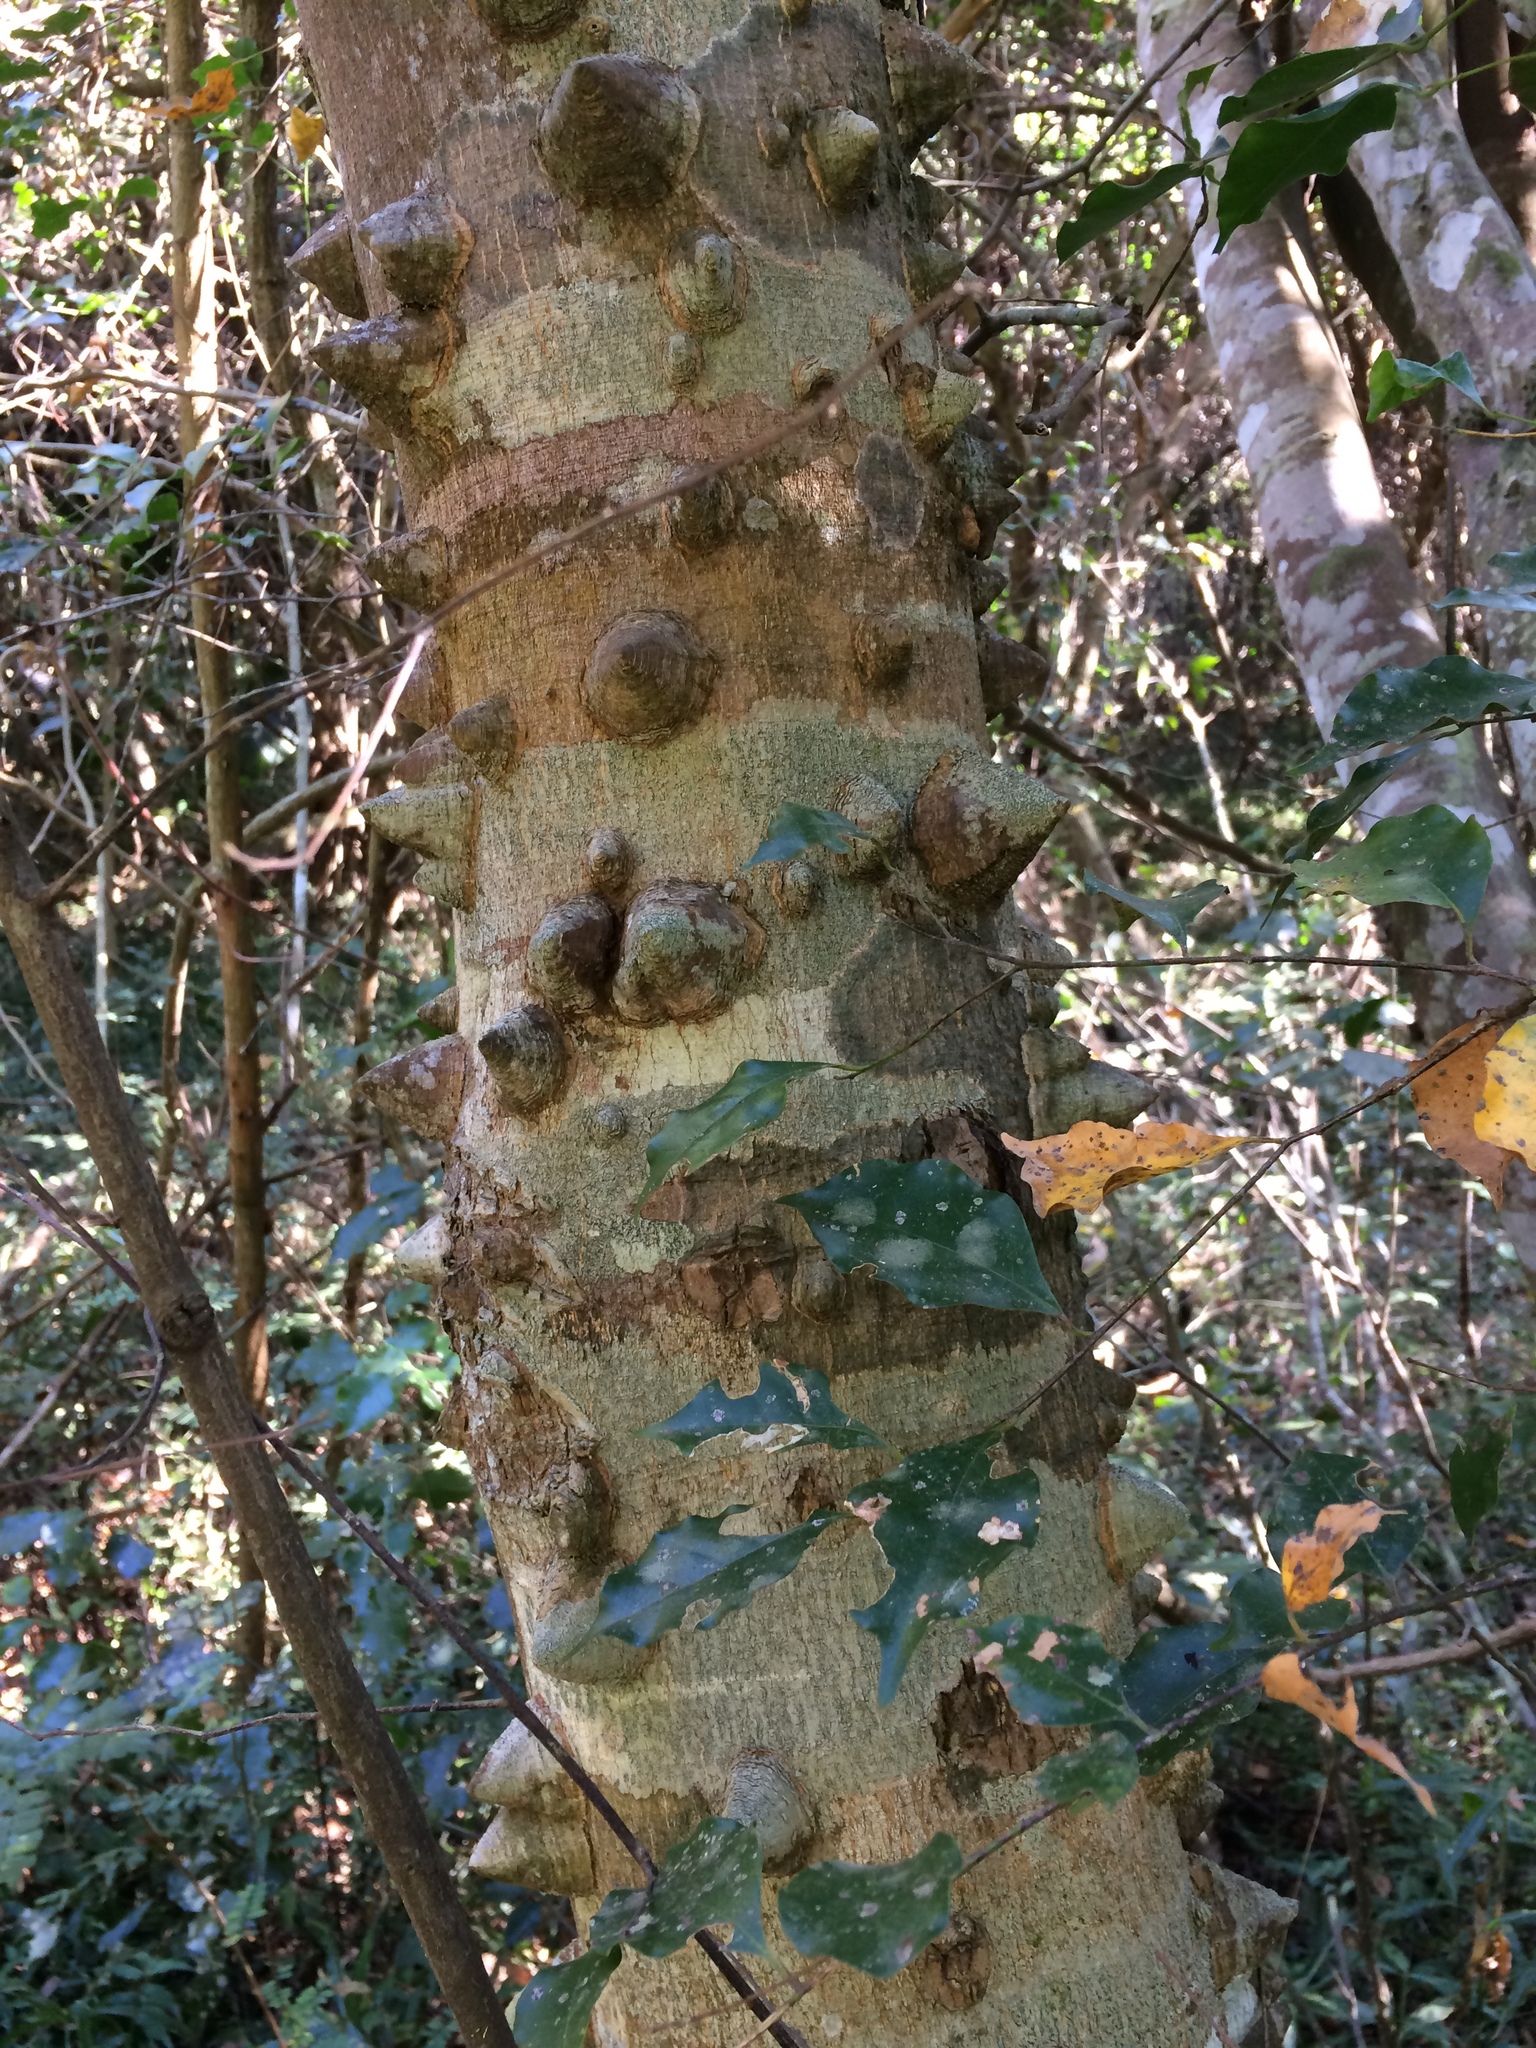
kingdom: Plantae
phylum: Tracheophyta
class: Magnoliopsida
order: Sapindales
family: Rutaceae
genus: Zanthoxylum
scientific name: Zanthoxylum davyi
